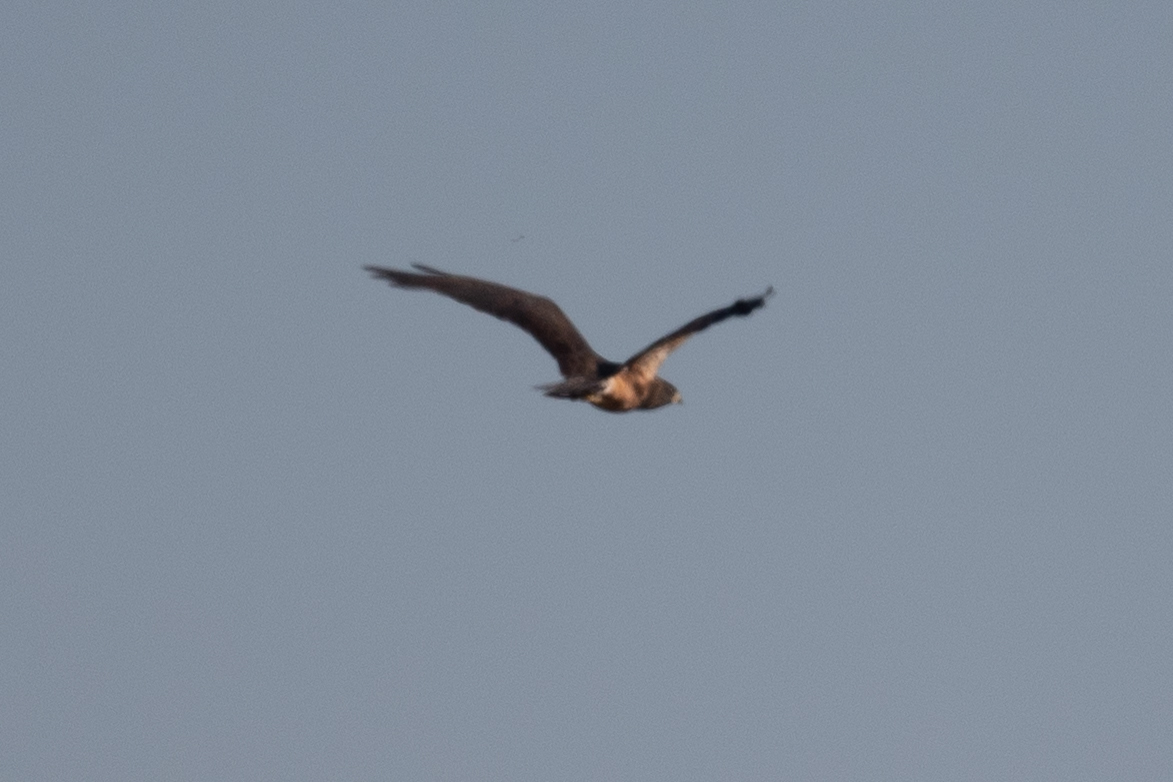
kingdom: Animalia
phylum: Chordata
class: Aves
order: Accipitriformes
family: Accipitridae
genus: Buteo
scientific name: Buteo swainsoni
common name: Swainson's hawk
